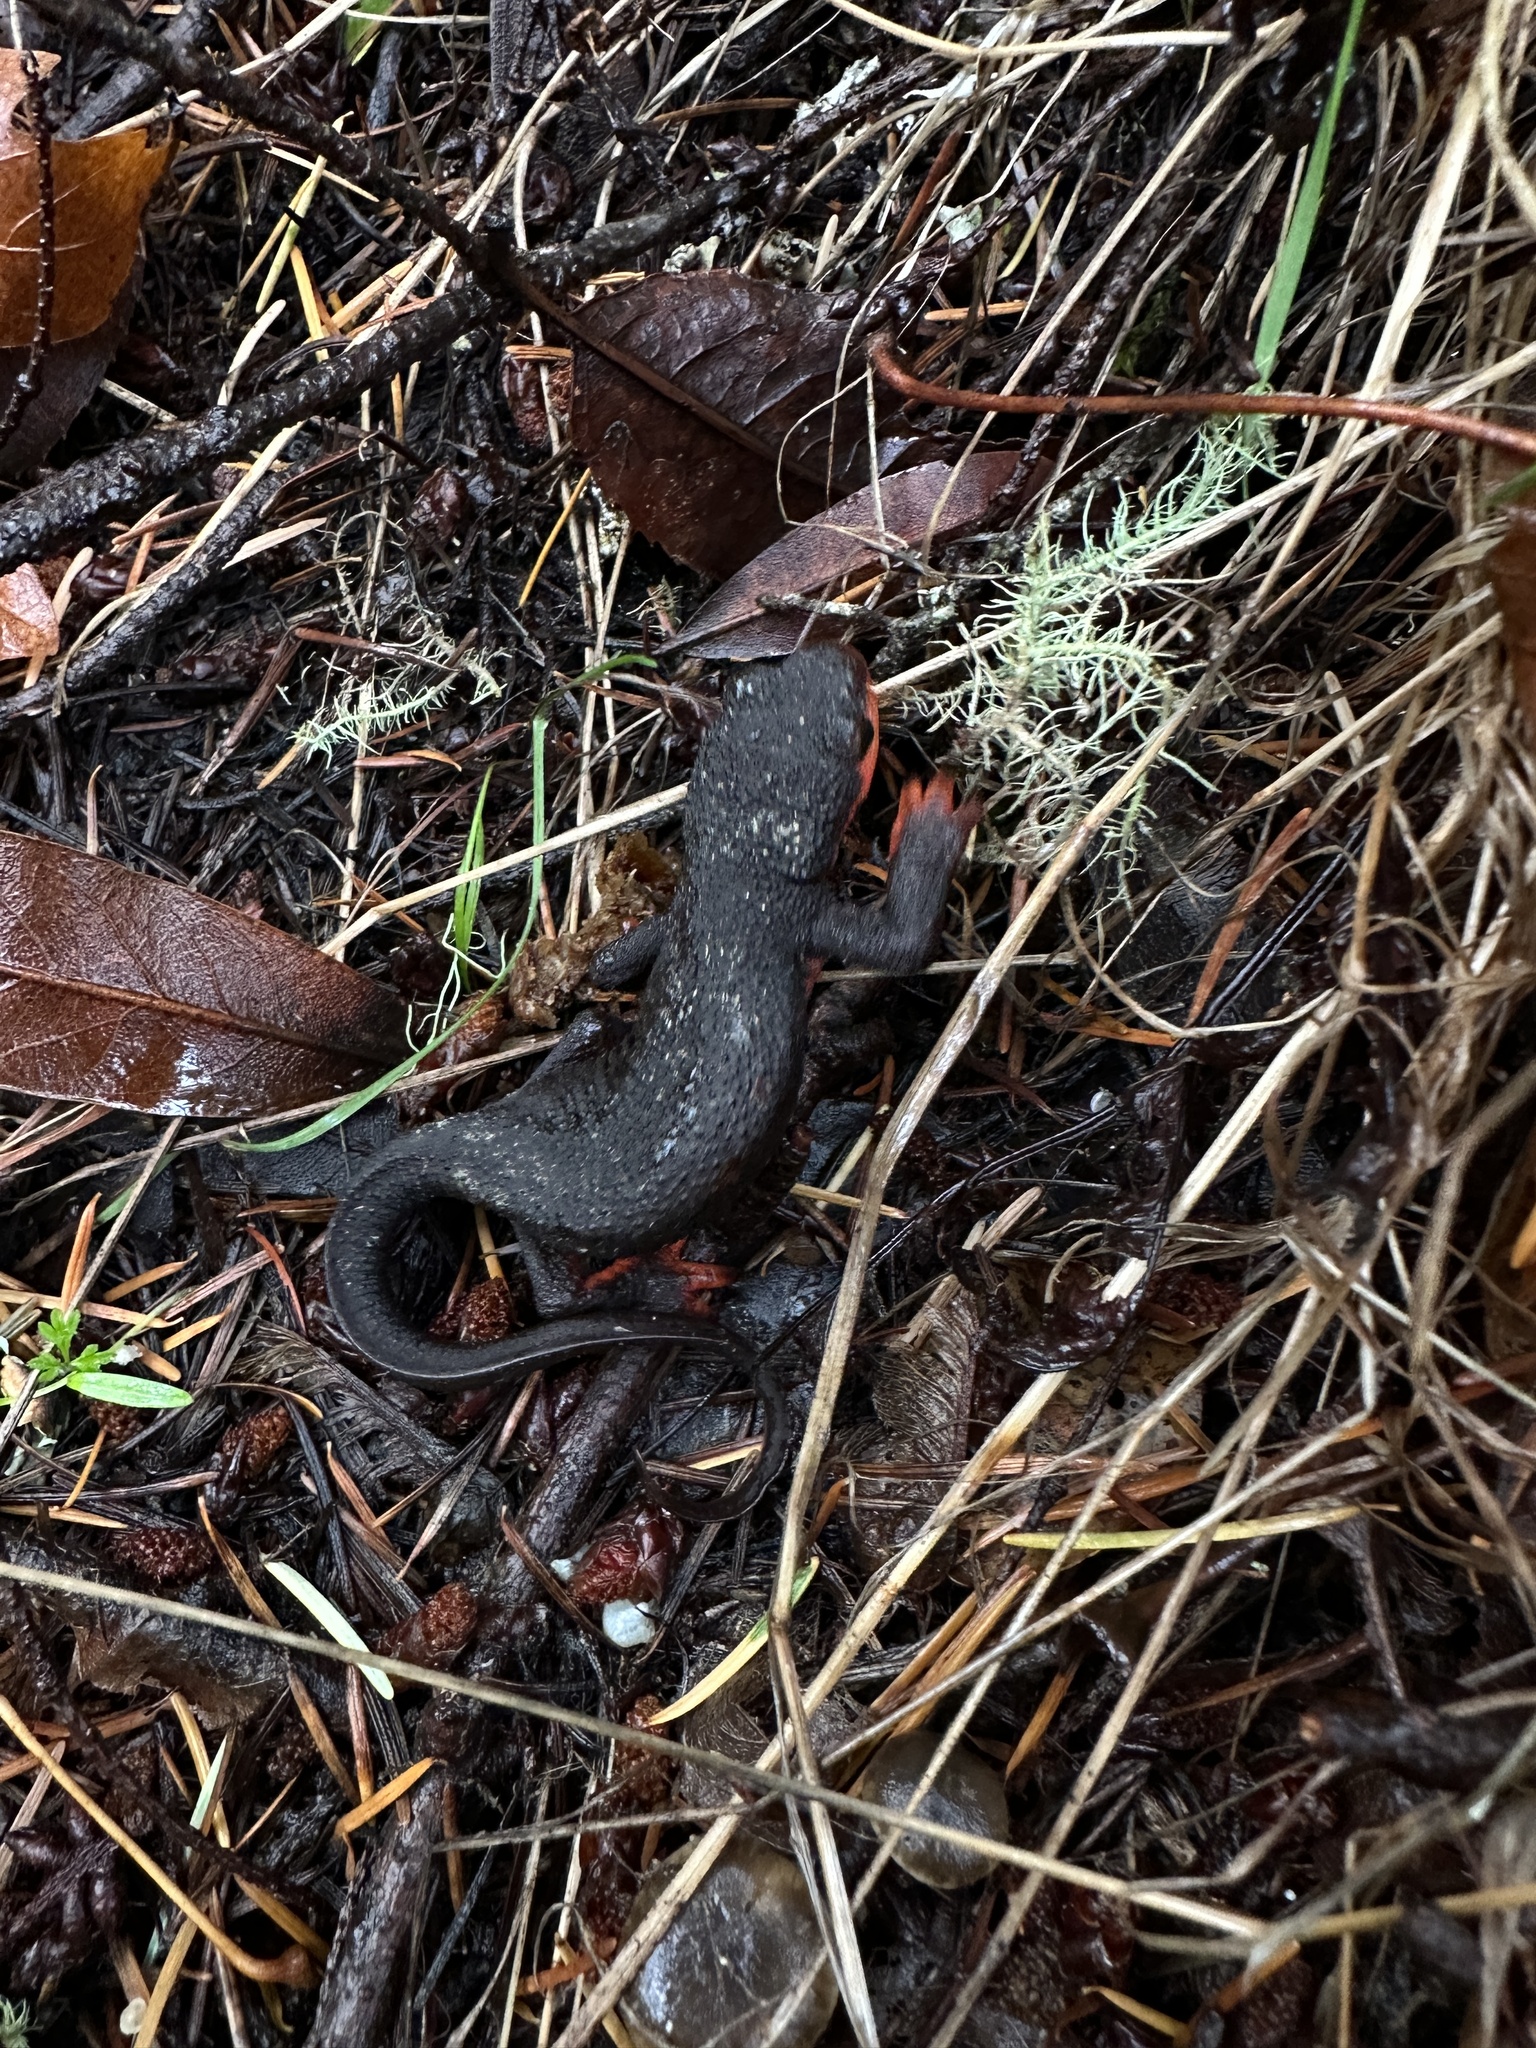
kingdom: Animalia
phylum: Chordata
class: Amphibia
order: Caudata
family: Salamandridae
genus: Taricha
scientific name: Taricha rivularis
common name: Red-bellied newt
